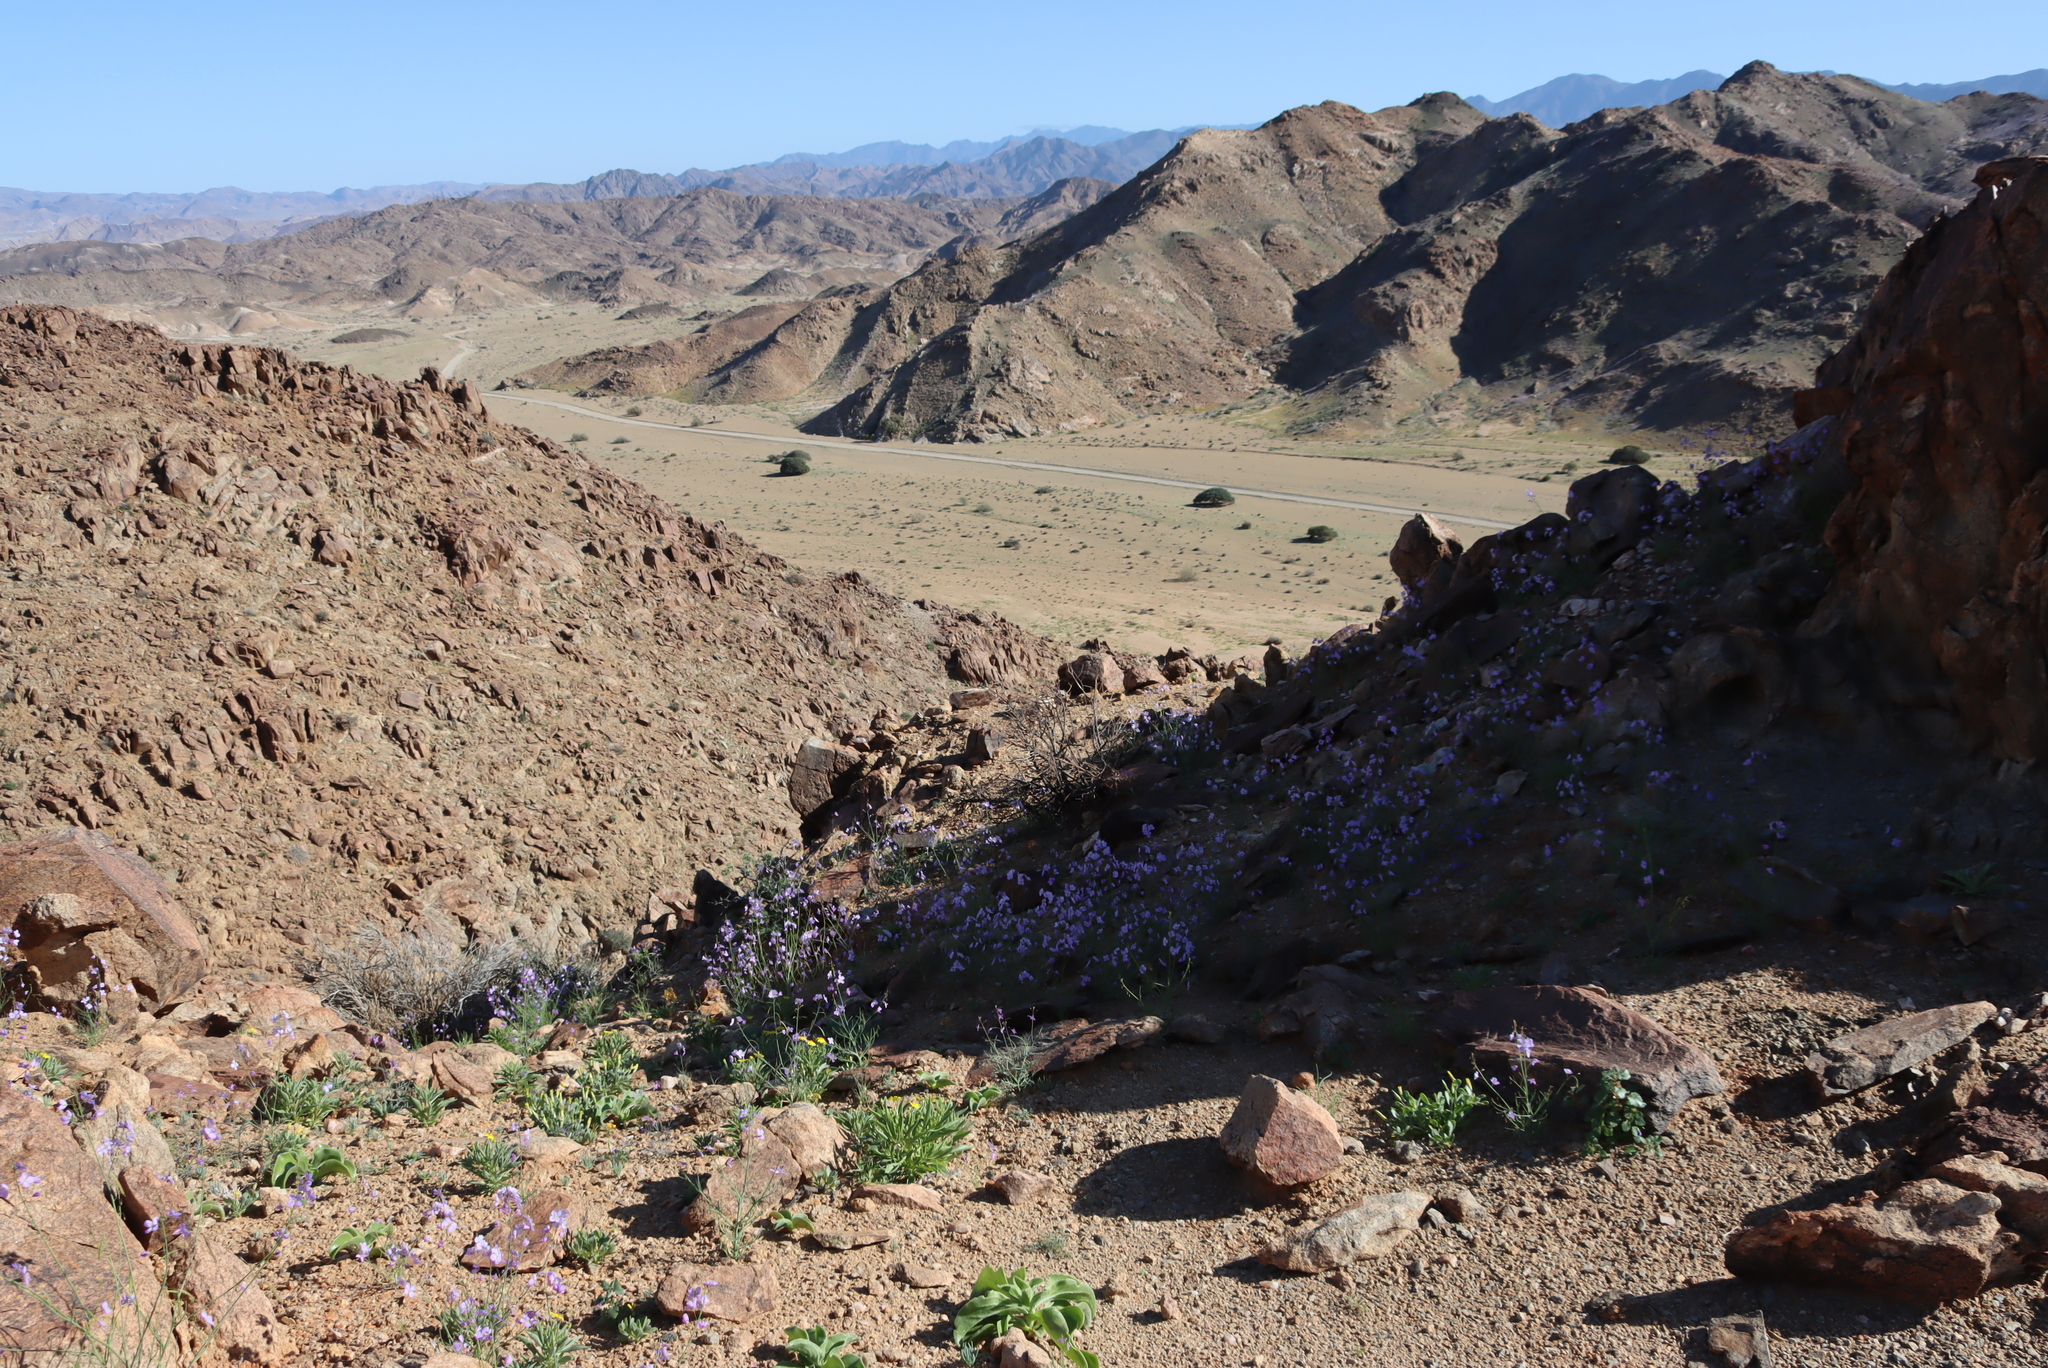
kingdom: Plantae
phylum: Tracheophyta
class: Magnoliopsida
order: Brassicales
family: Brassicaceae
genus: Heliophila
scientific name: Heliophila trifurca
